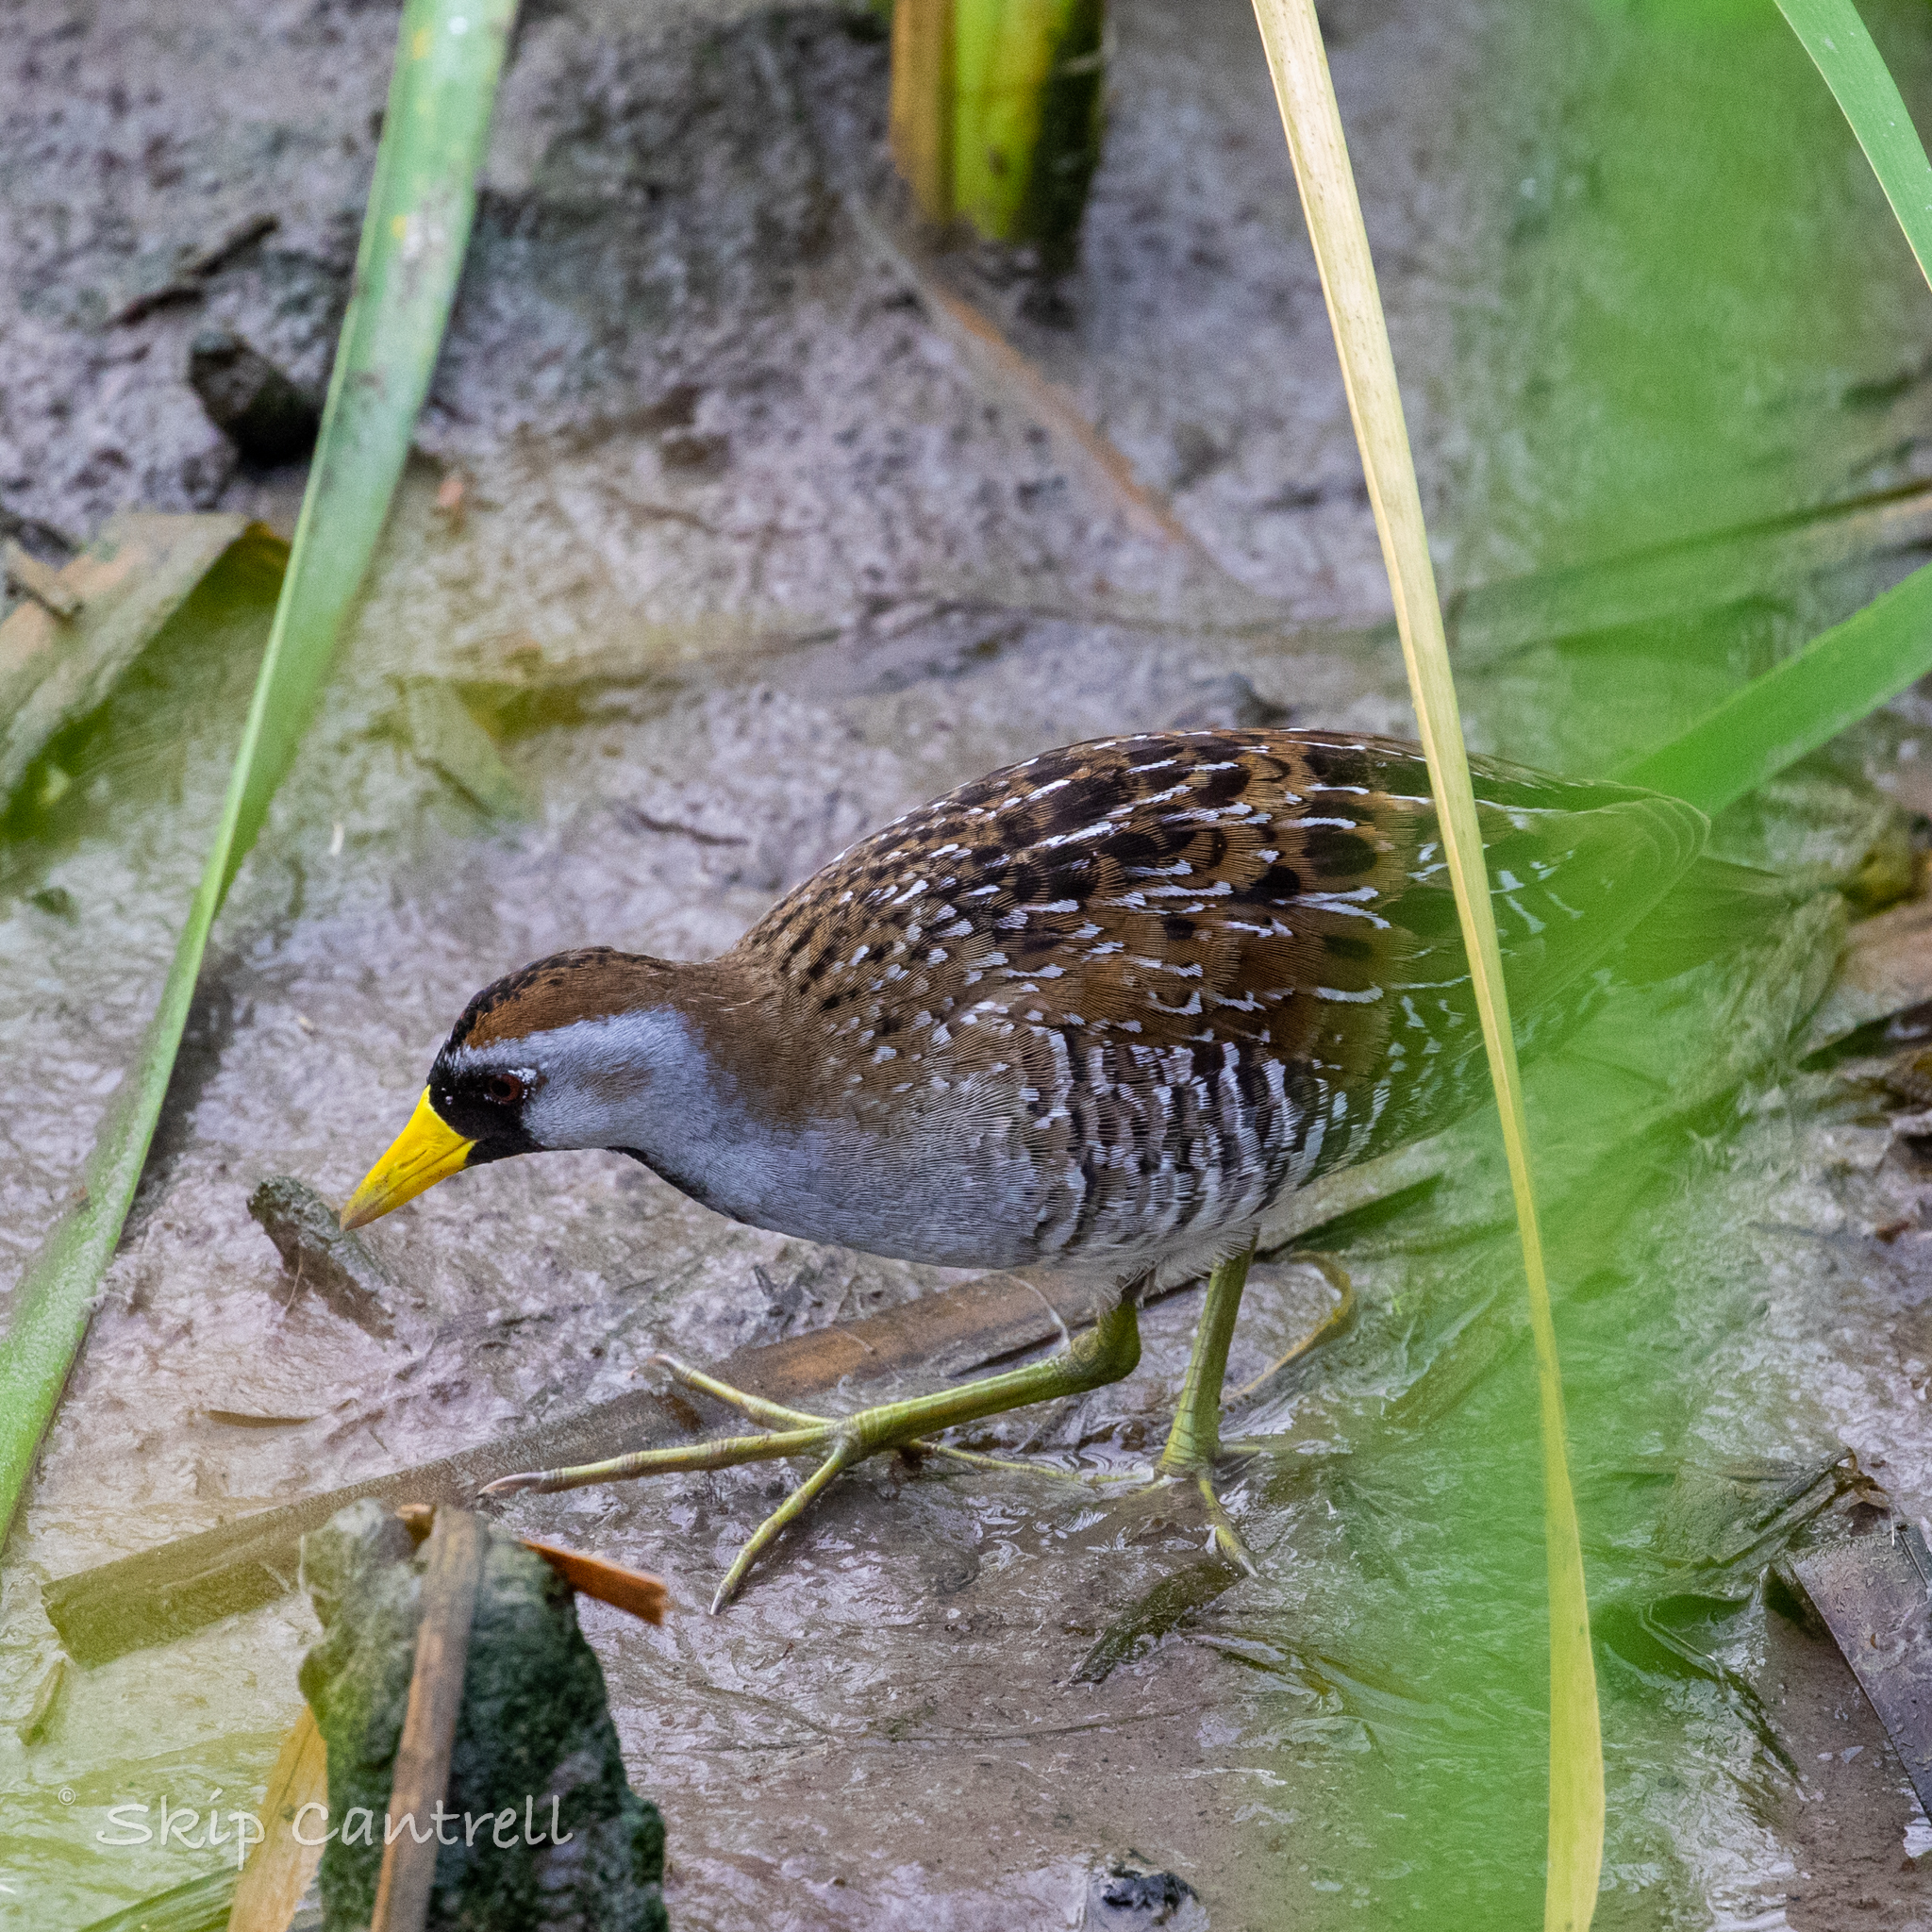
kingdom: Animalia
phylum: Chordata
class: Aves
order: Gruiformes
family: Rallidae
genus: Porzana
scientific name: Porzana carolina
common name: Sora
